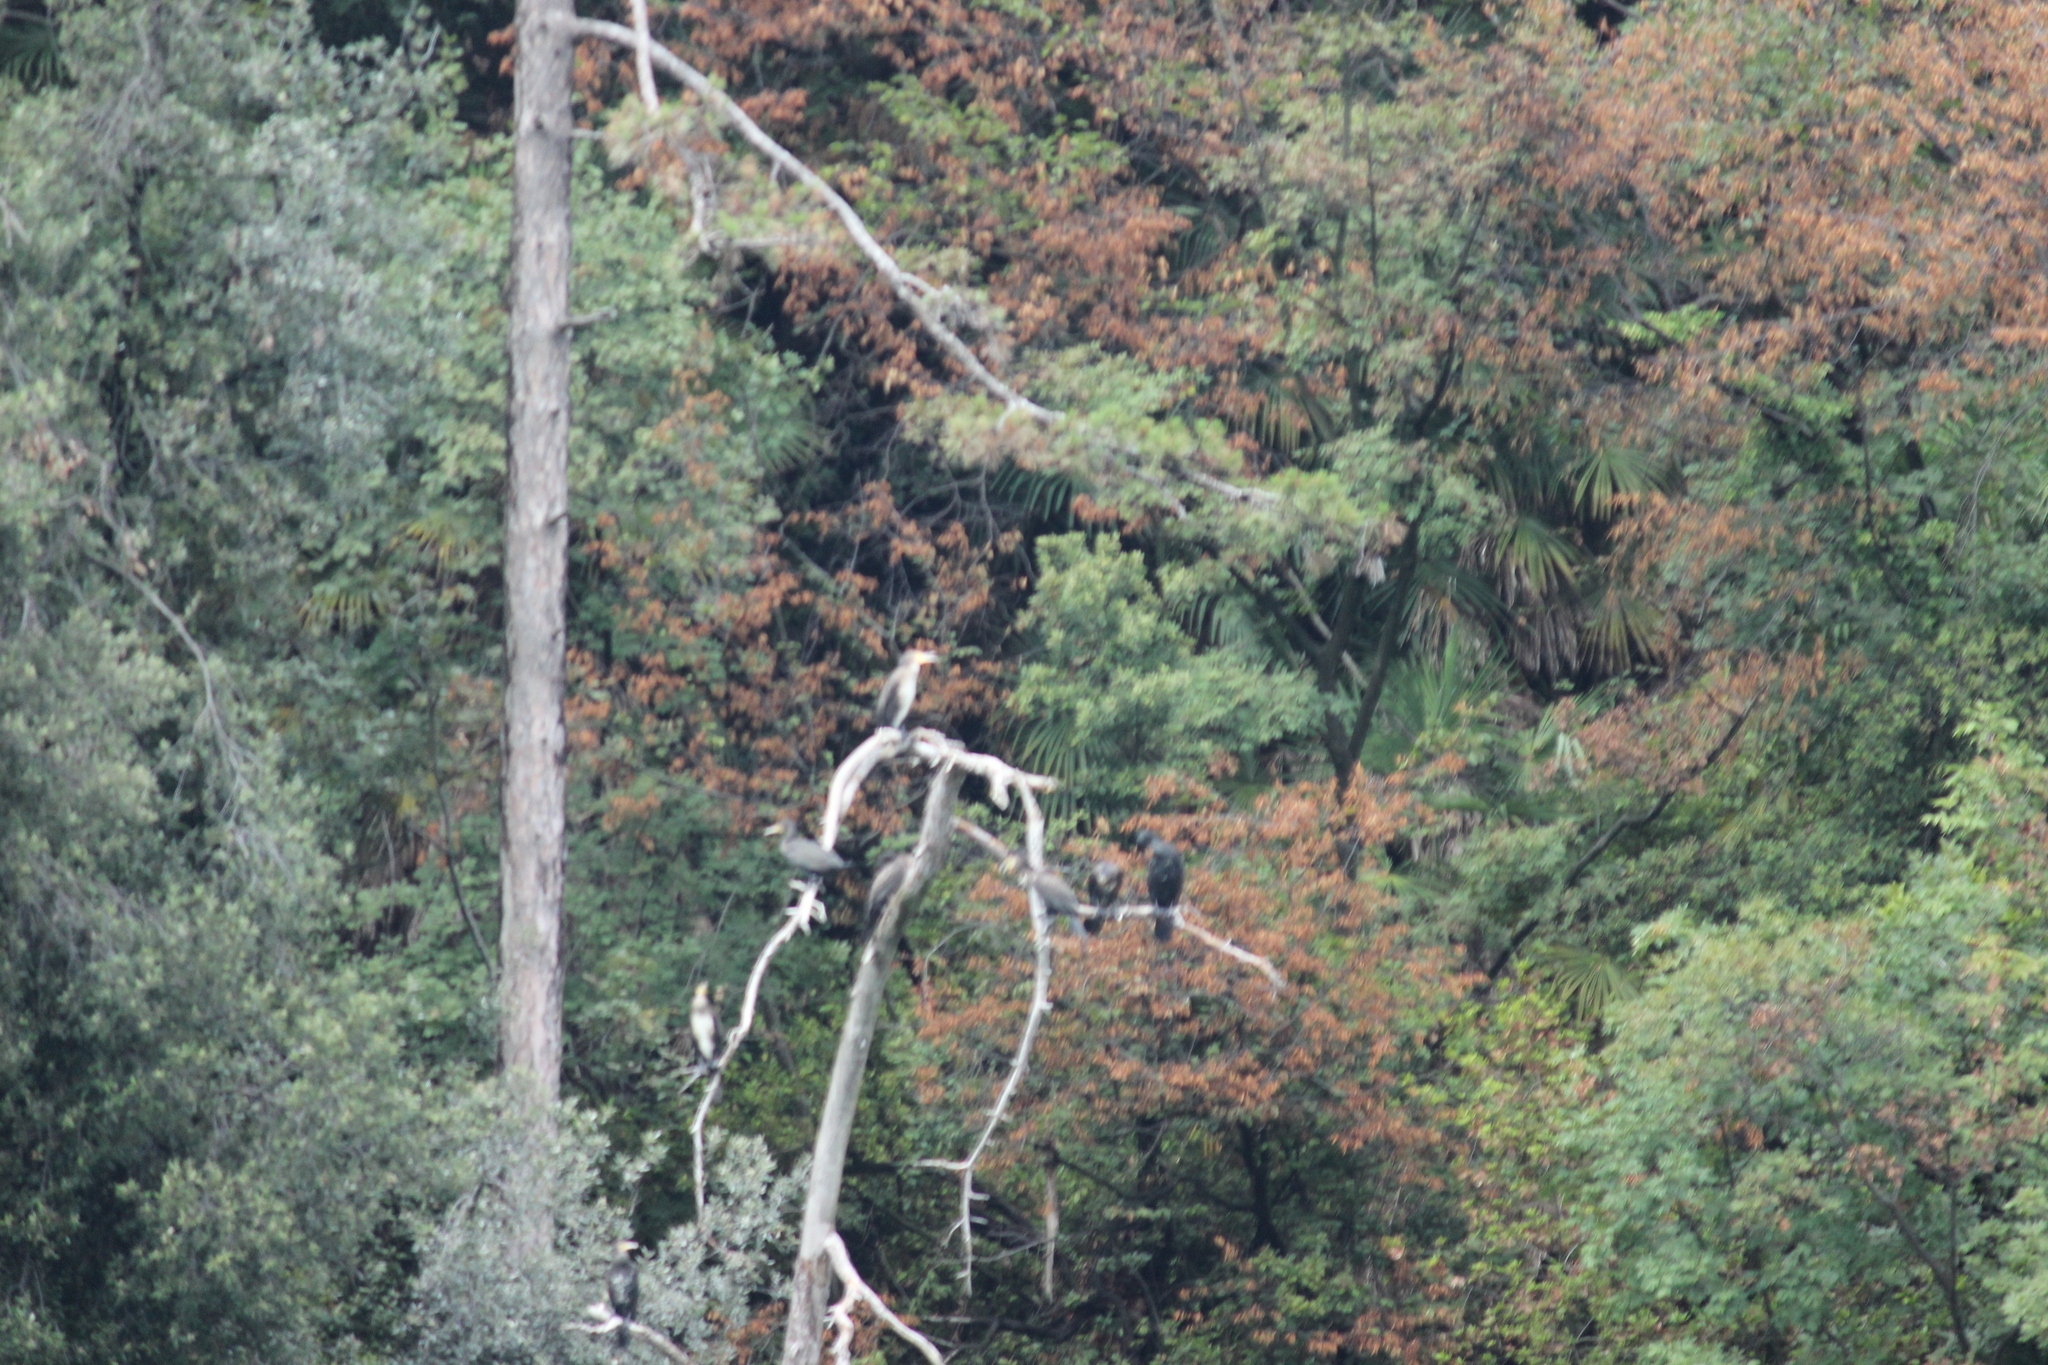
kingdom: Animalia
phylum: Chordata
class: Aves
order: Suliformes
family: Phalacrocoracidae
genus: Phalacrocorax
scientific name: Phalacrocorax carbo
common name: Great cormorant
